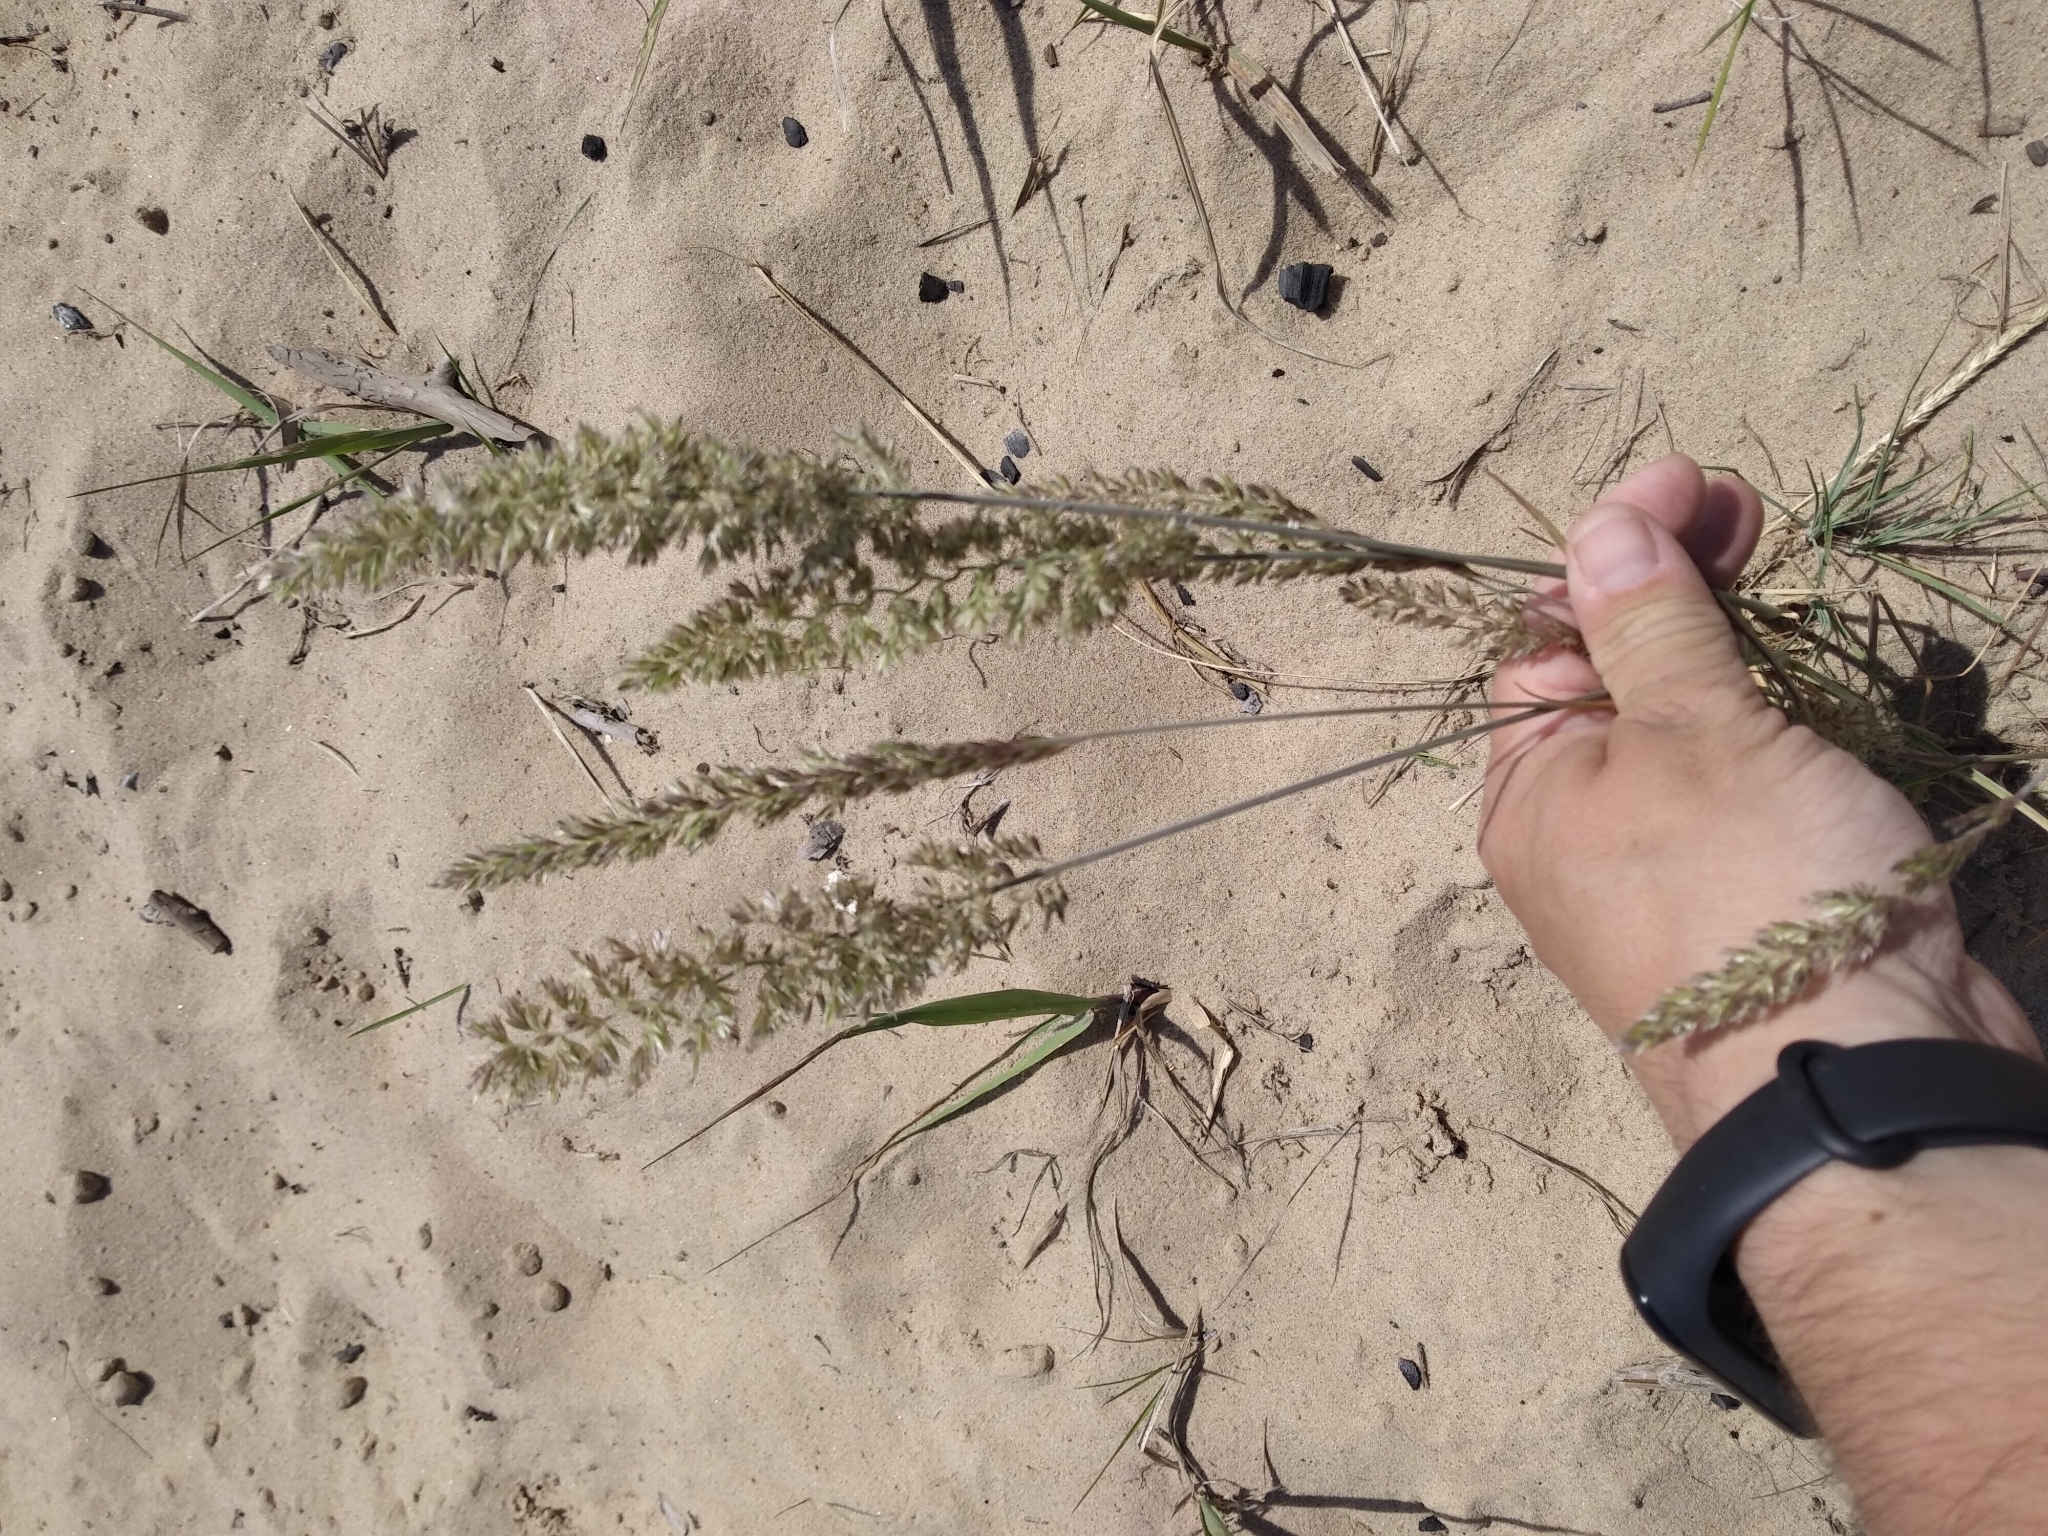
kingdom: Plantae
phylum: Tracheophyta
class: Liliopsida
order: Poales
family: Poaceae
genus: Koeleria
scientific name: Koeleria glauca
